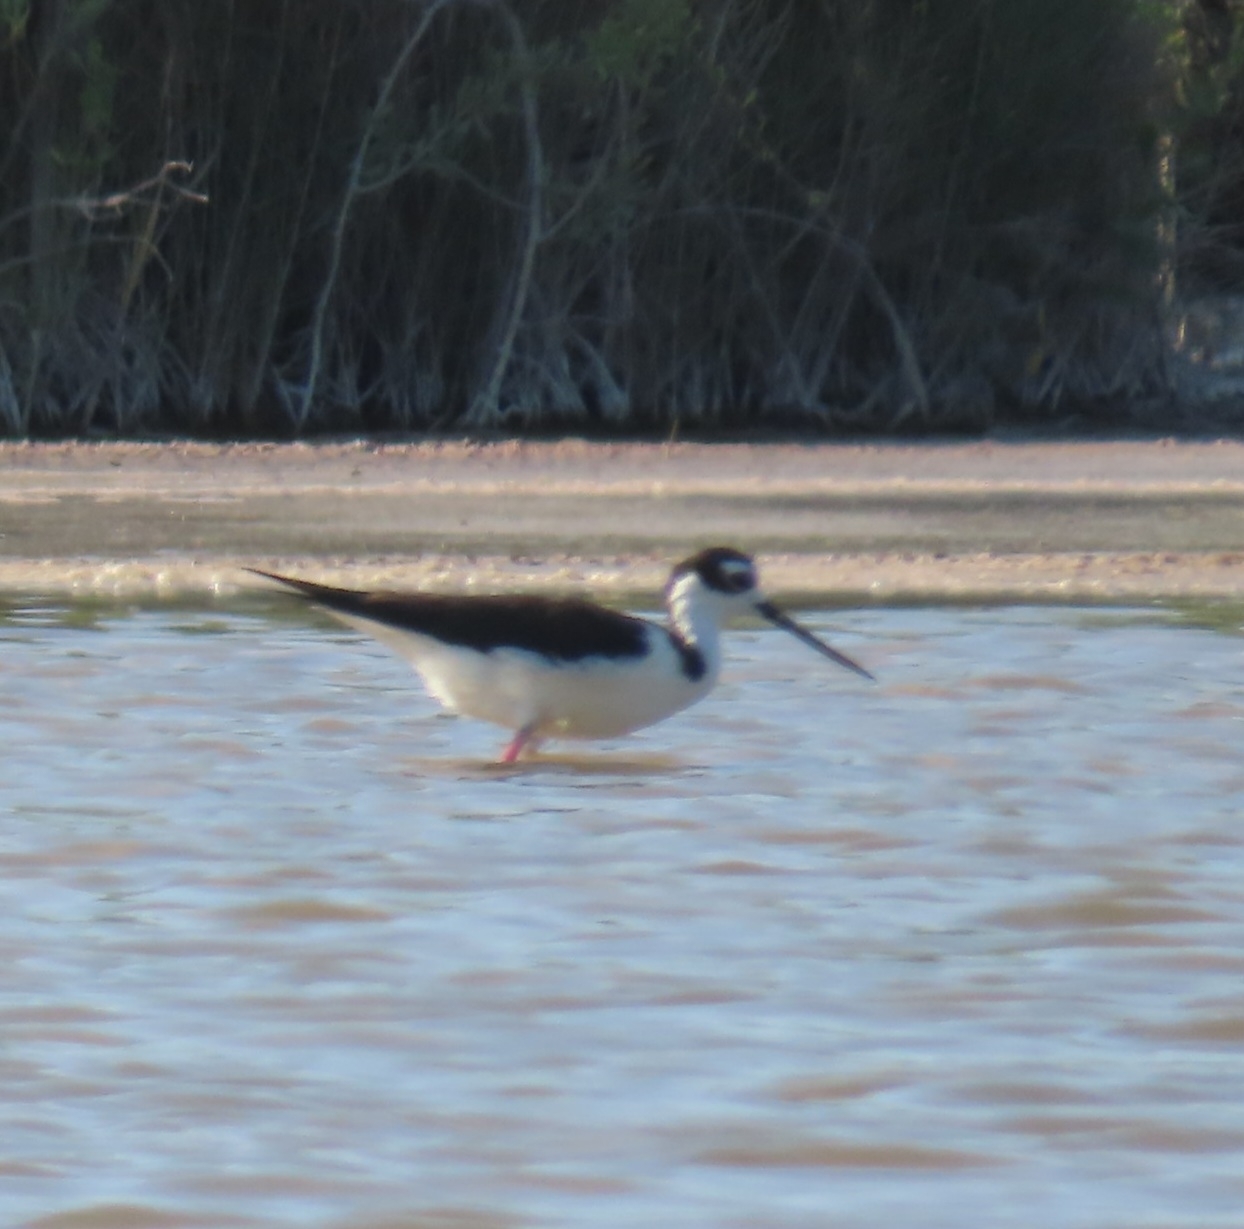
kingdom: Animalia
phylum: Chordata
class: Aves
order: Charadriiformes
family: Recurvirostridae
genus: Himantopus
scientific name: Himantopus mexicanus
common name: Black-necked stilt
